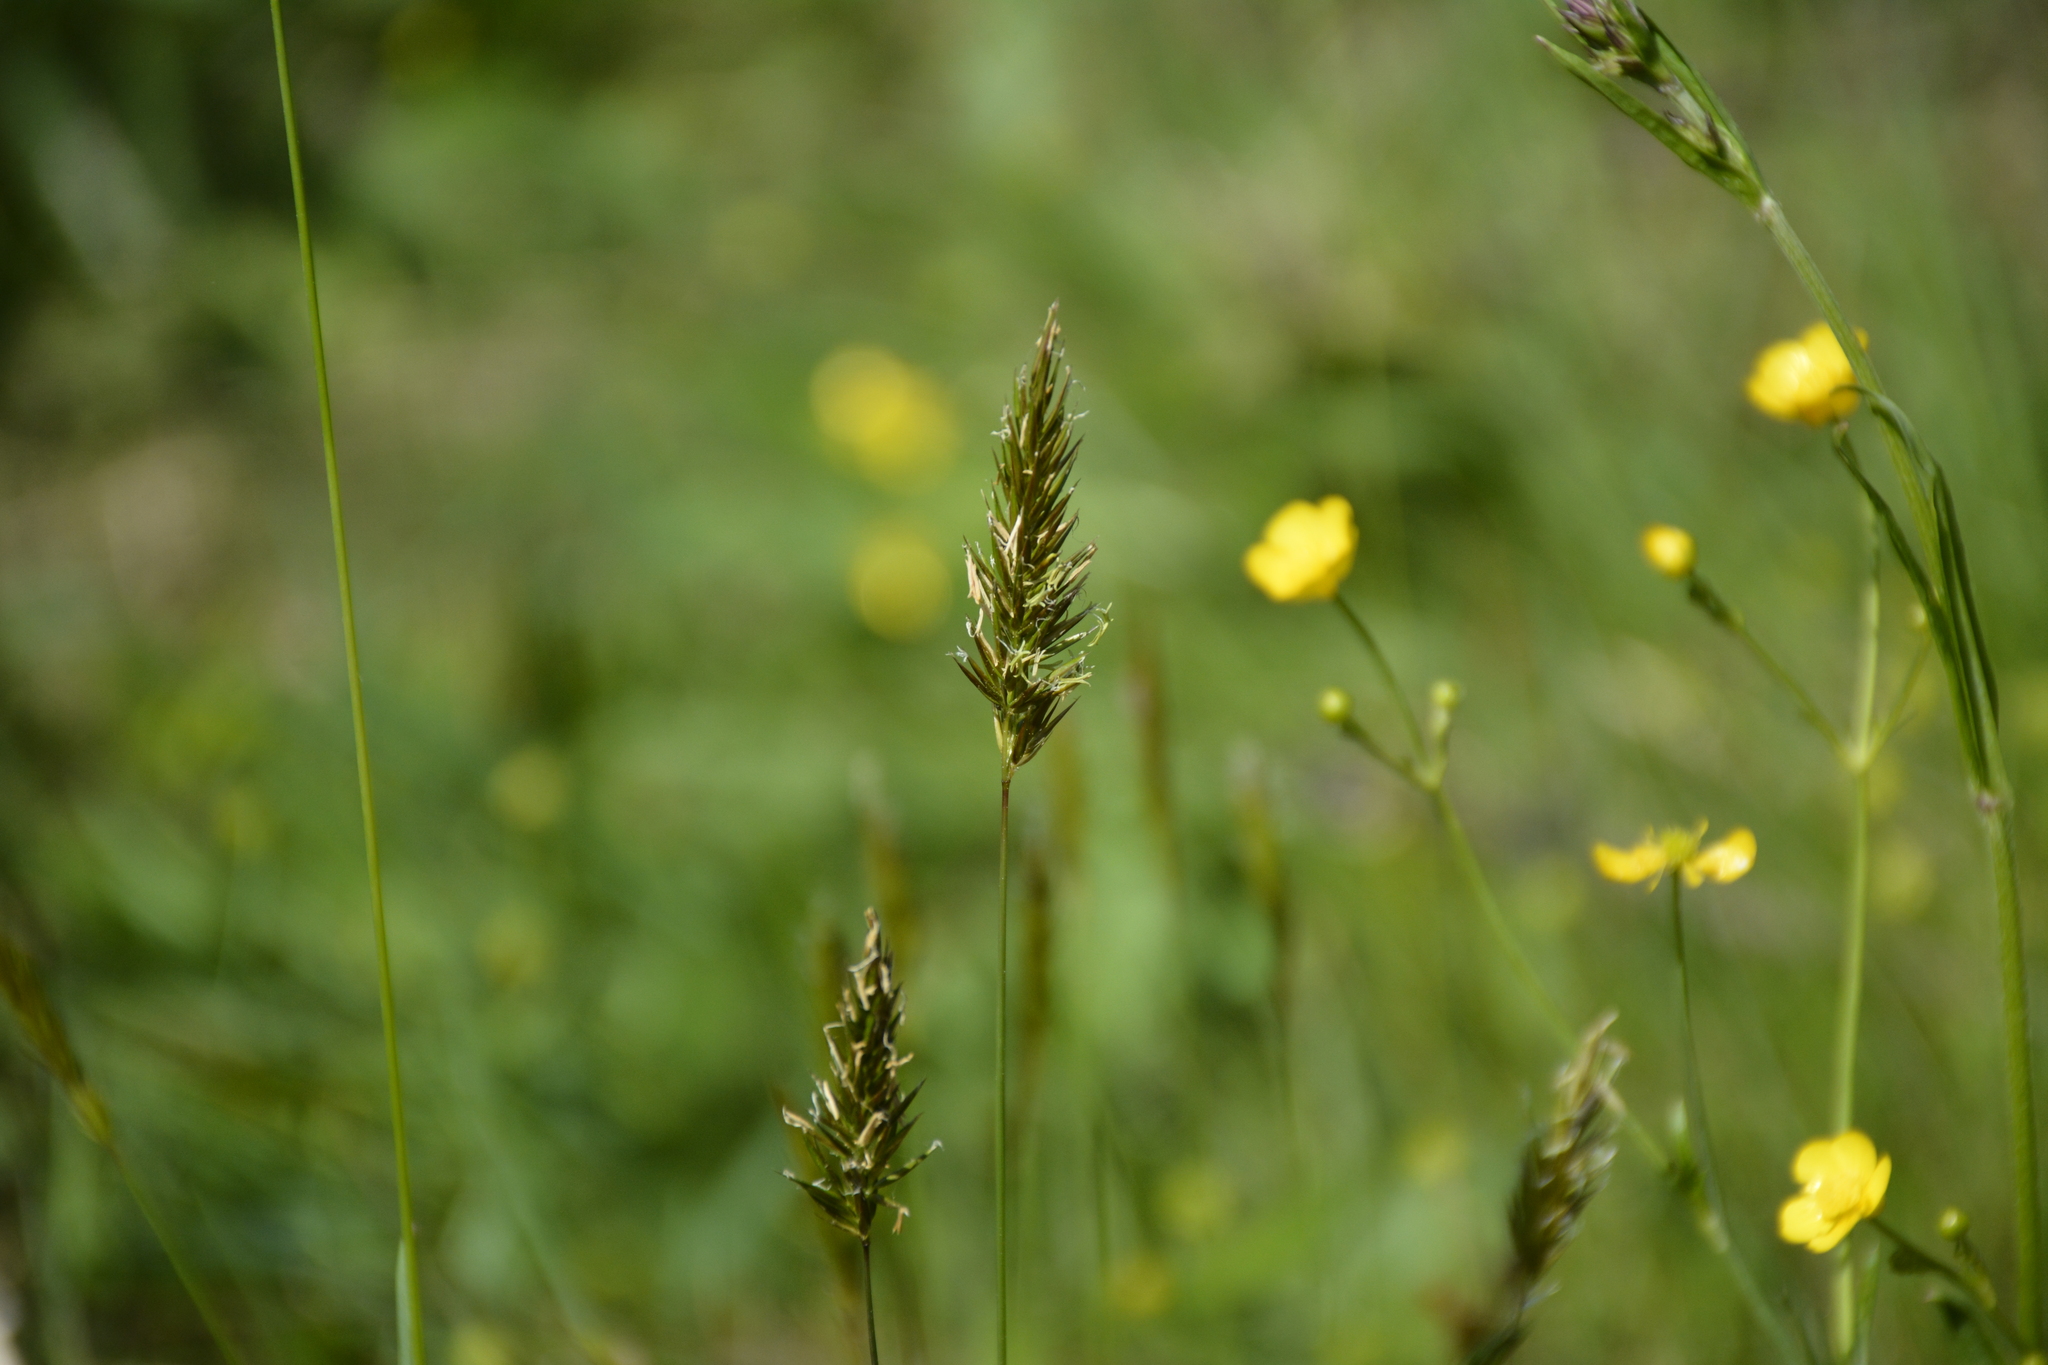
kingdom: Plantae
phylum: Tracheophyta
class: Liliopsida
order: Poales
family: Poaceae
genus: Anthoxanthum
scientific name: Anthoxanthum odoratum
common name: Sweet vernalgrass
